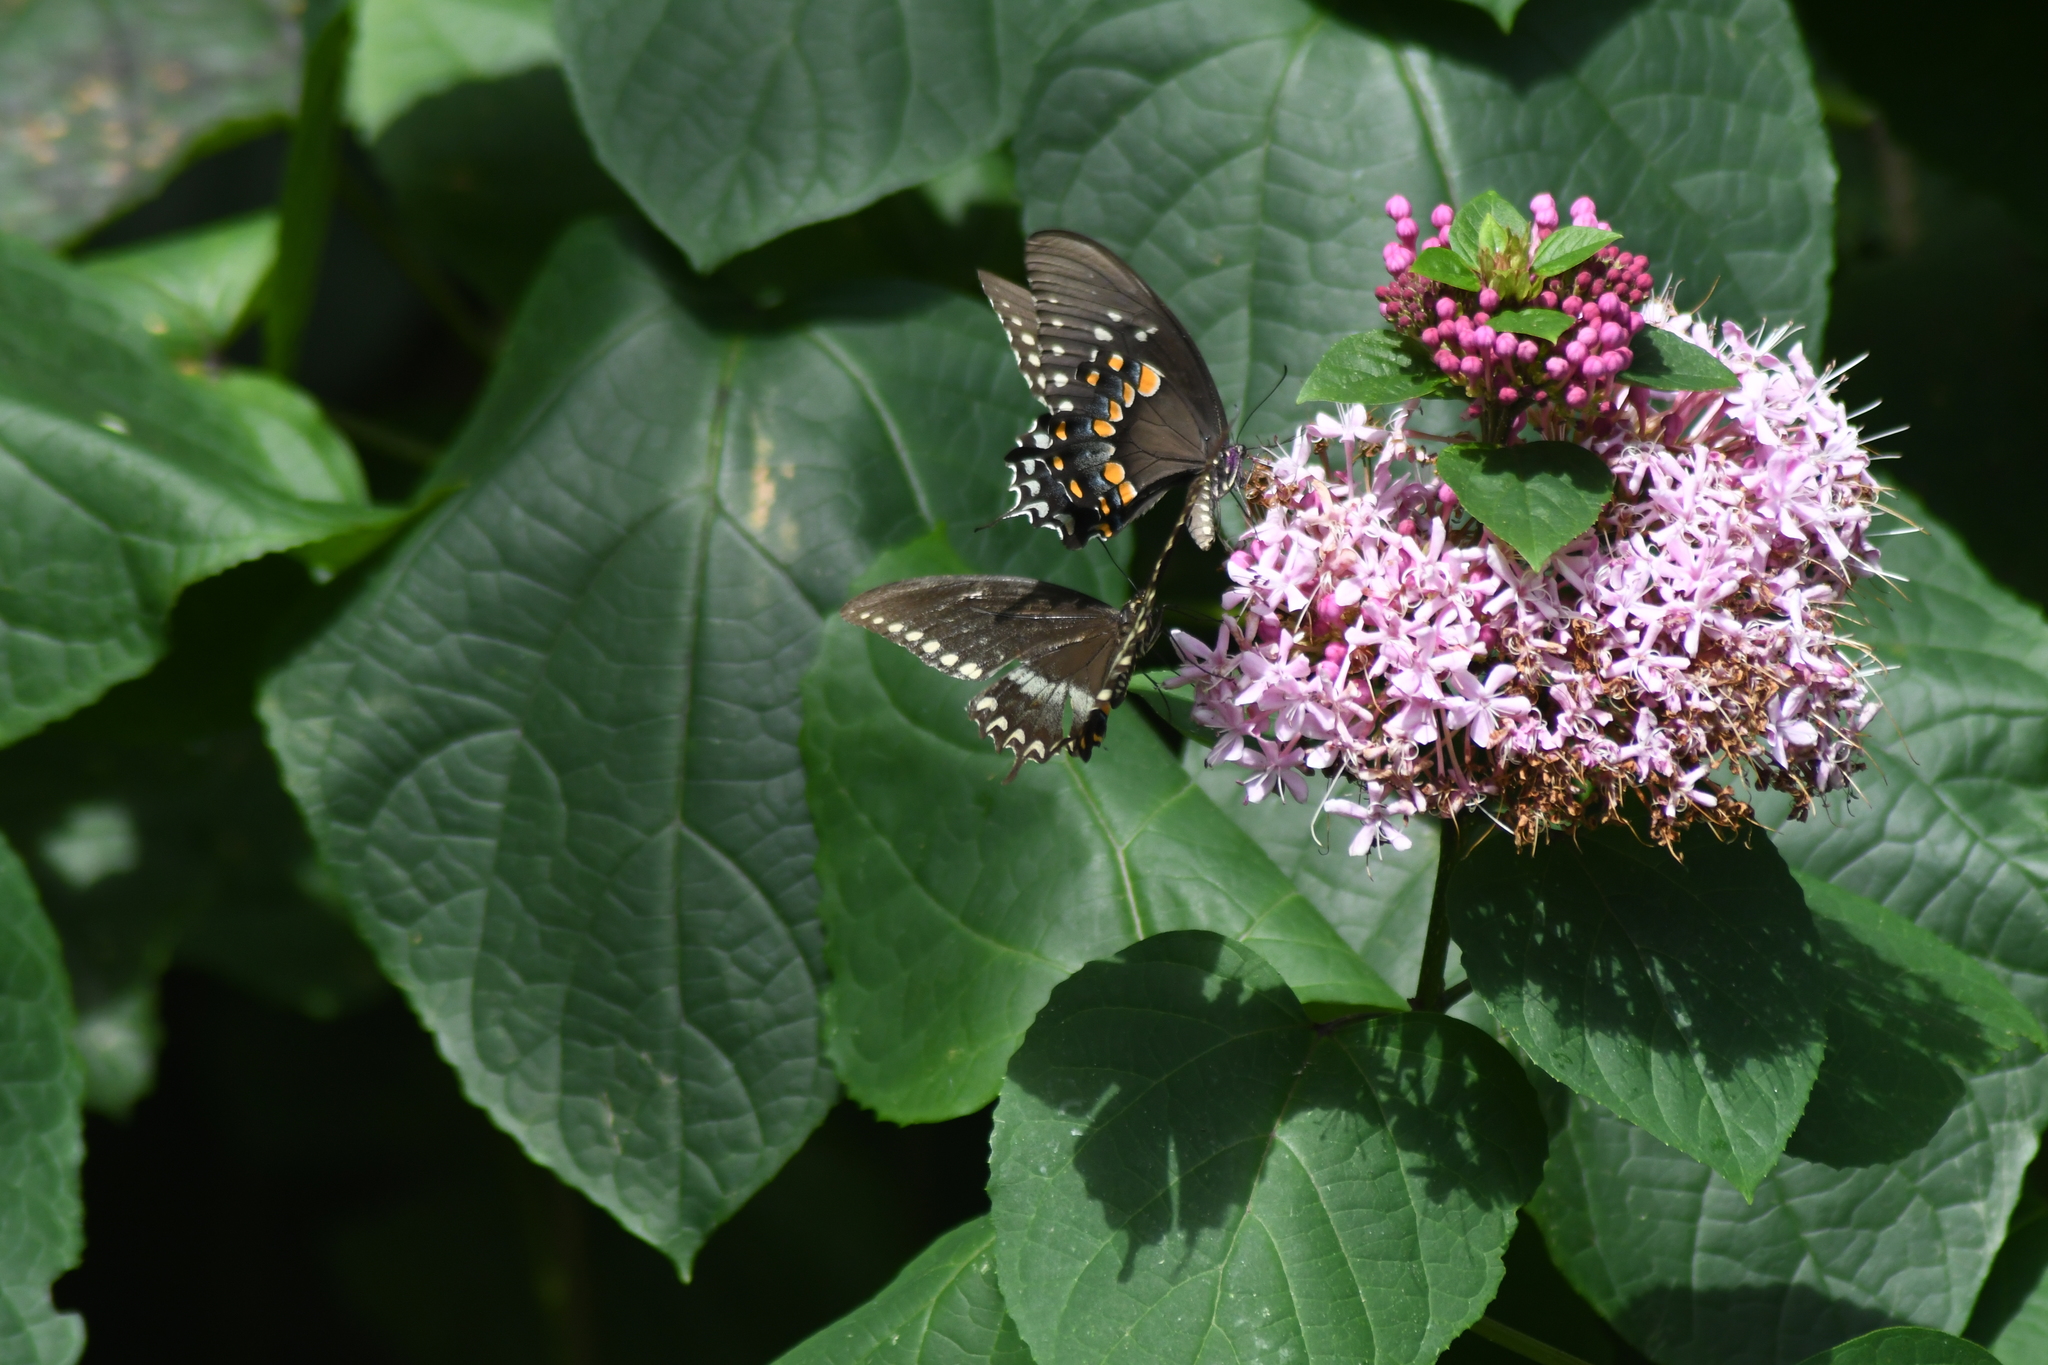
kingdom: Animalia
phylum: Arthropoda
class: Insecta
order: Lepidoptera
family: Papilionidae
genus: Papilio
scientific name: Papilio troilus
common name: Spicebush swallowtail
